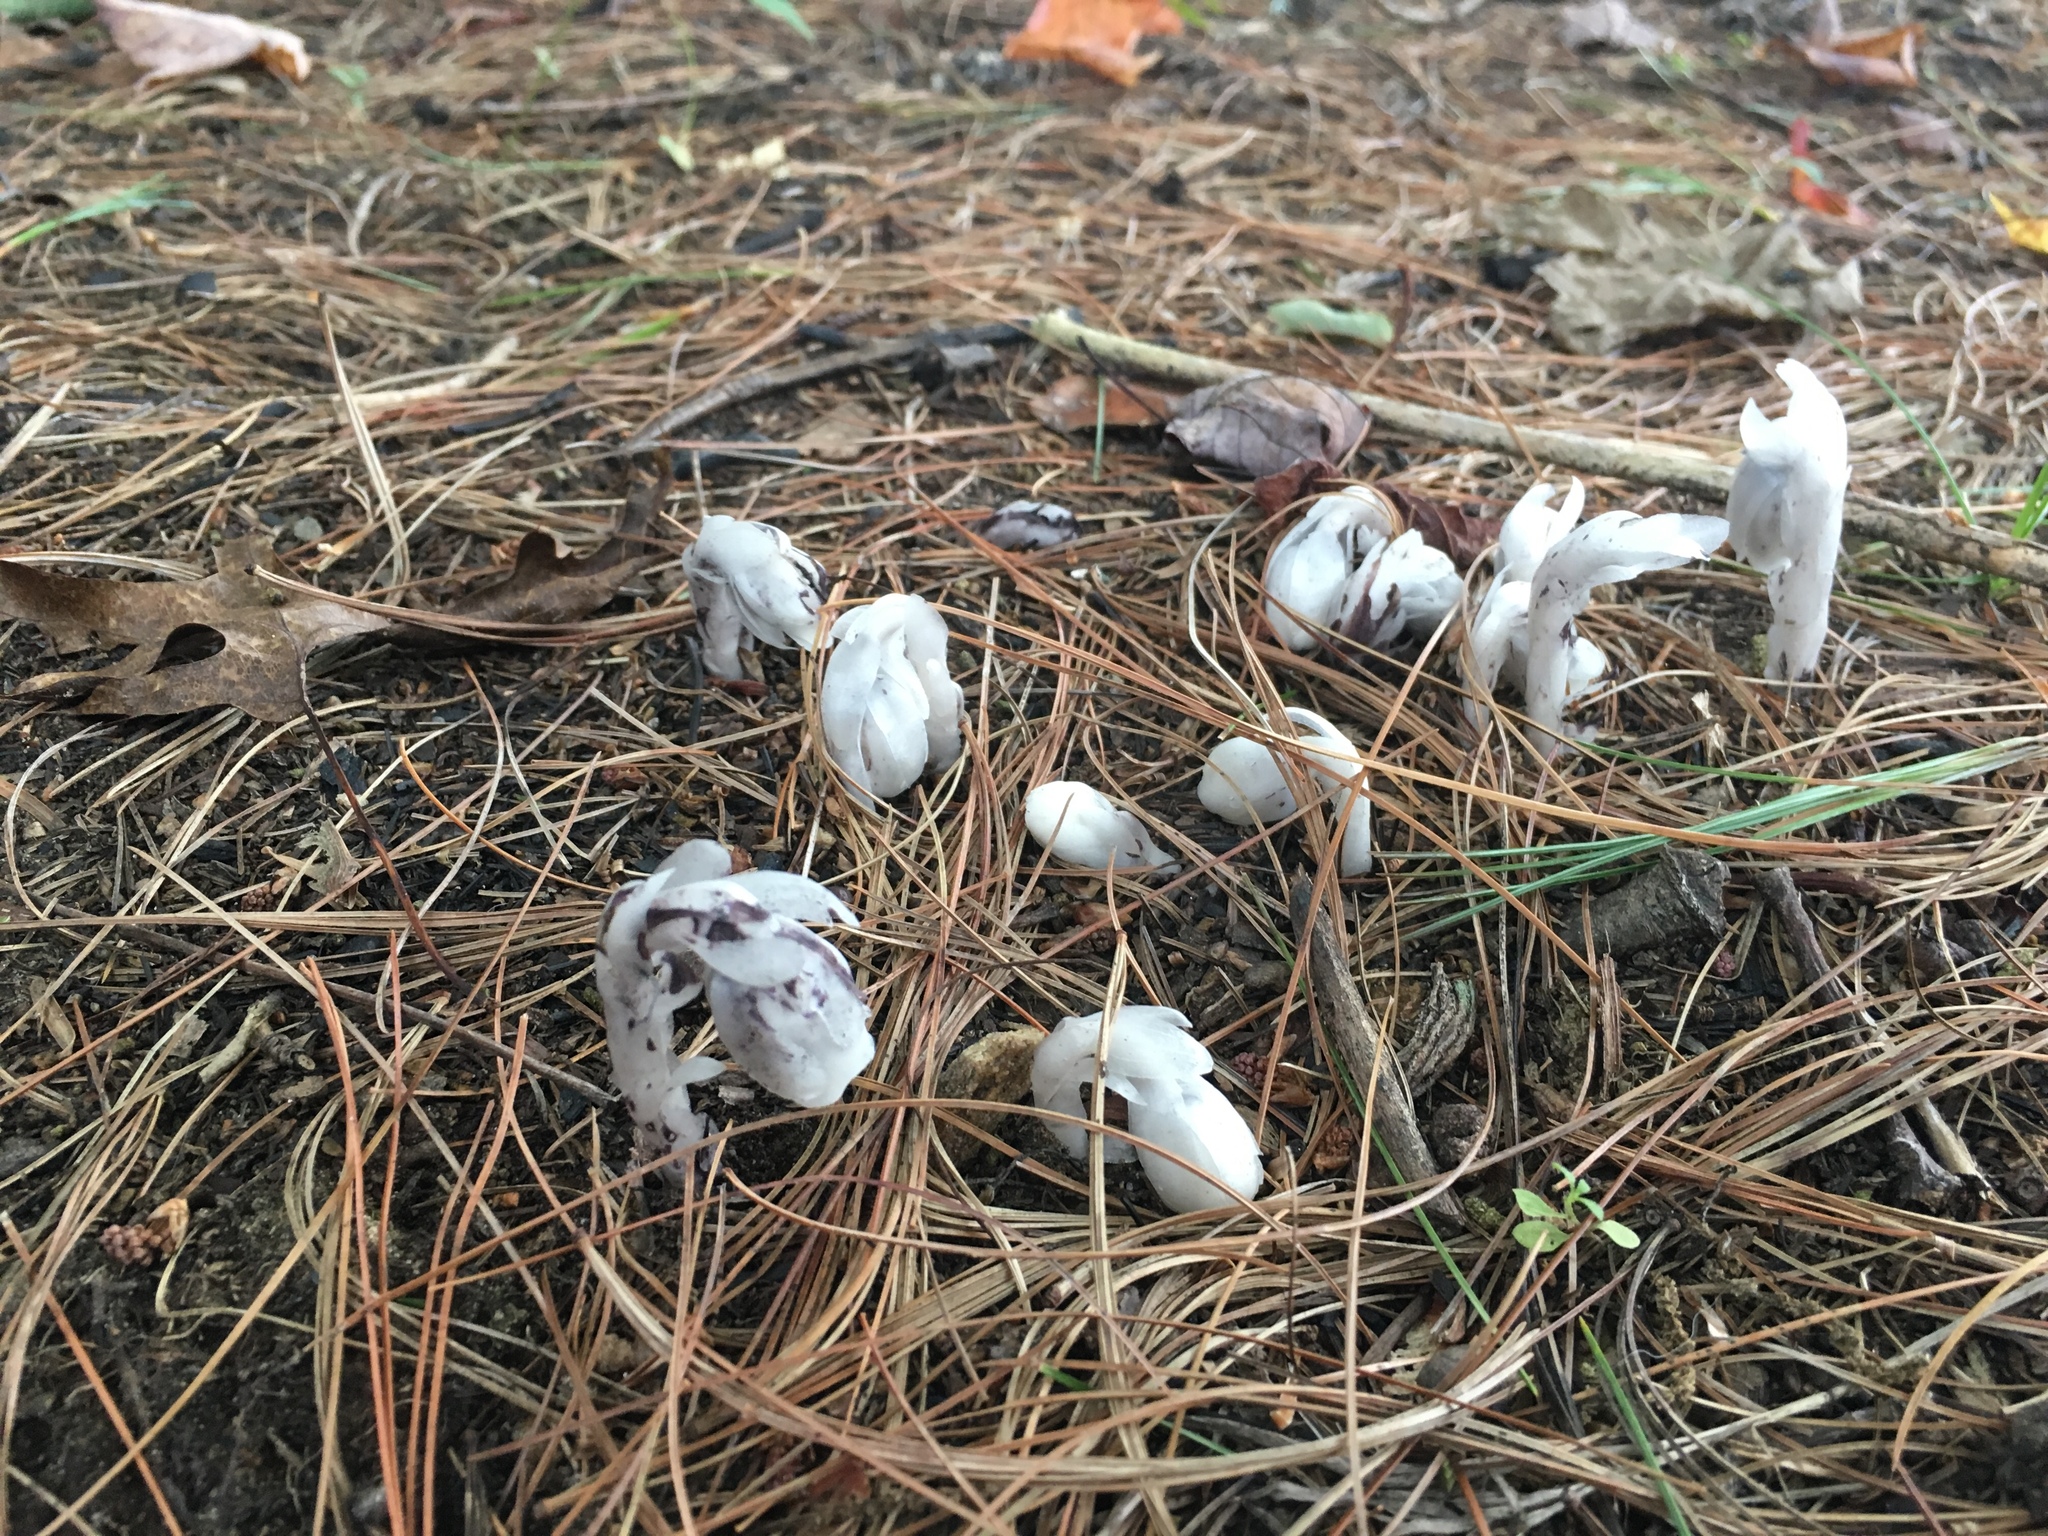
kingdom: Plantae
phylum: Tracheophyta
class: Magnoliopsida
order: Ericales
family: Ericaceae
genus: Monotropa
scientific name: Monotropa uniflora
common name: Convulsion root
